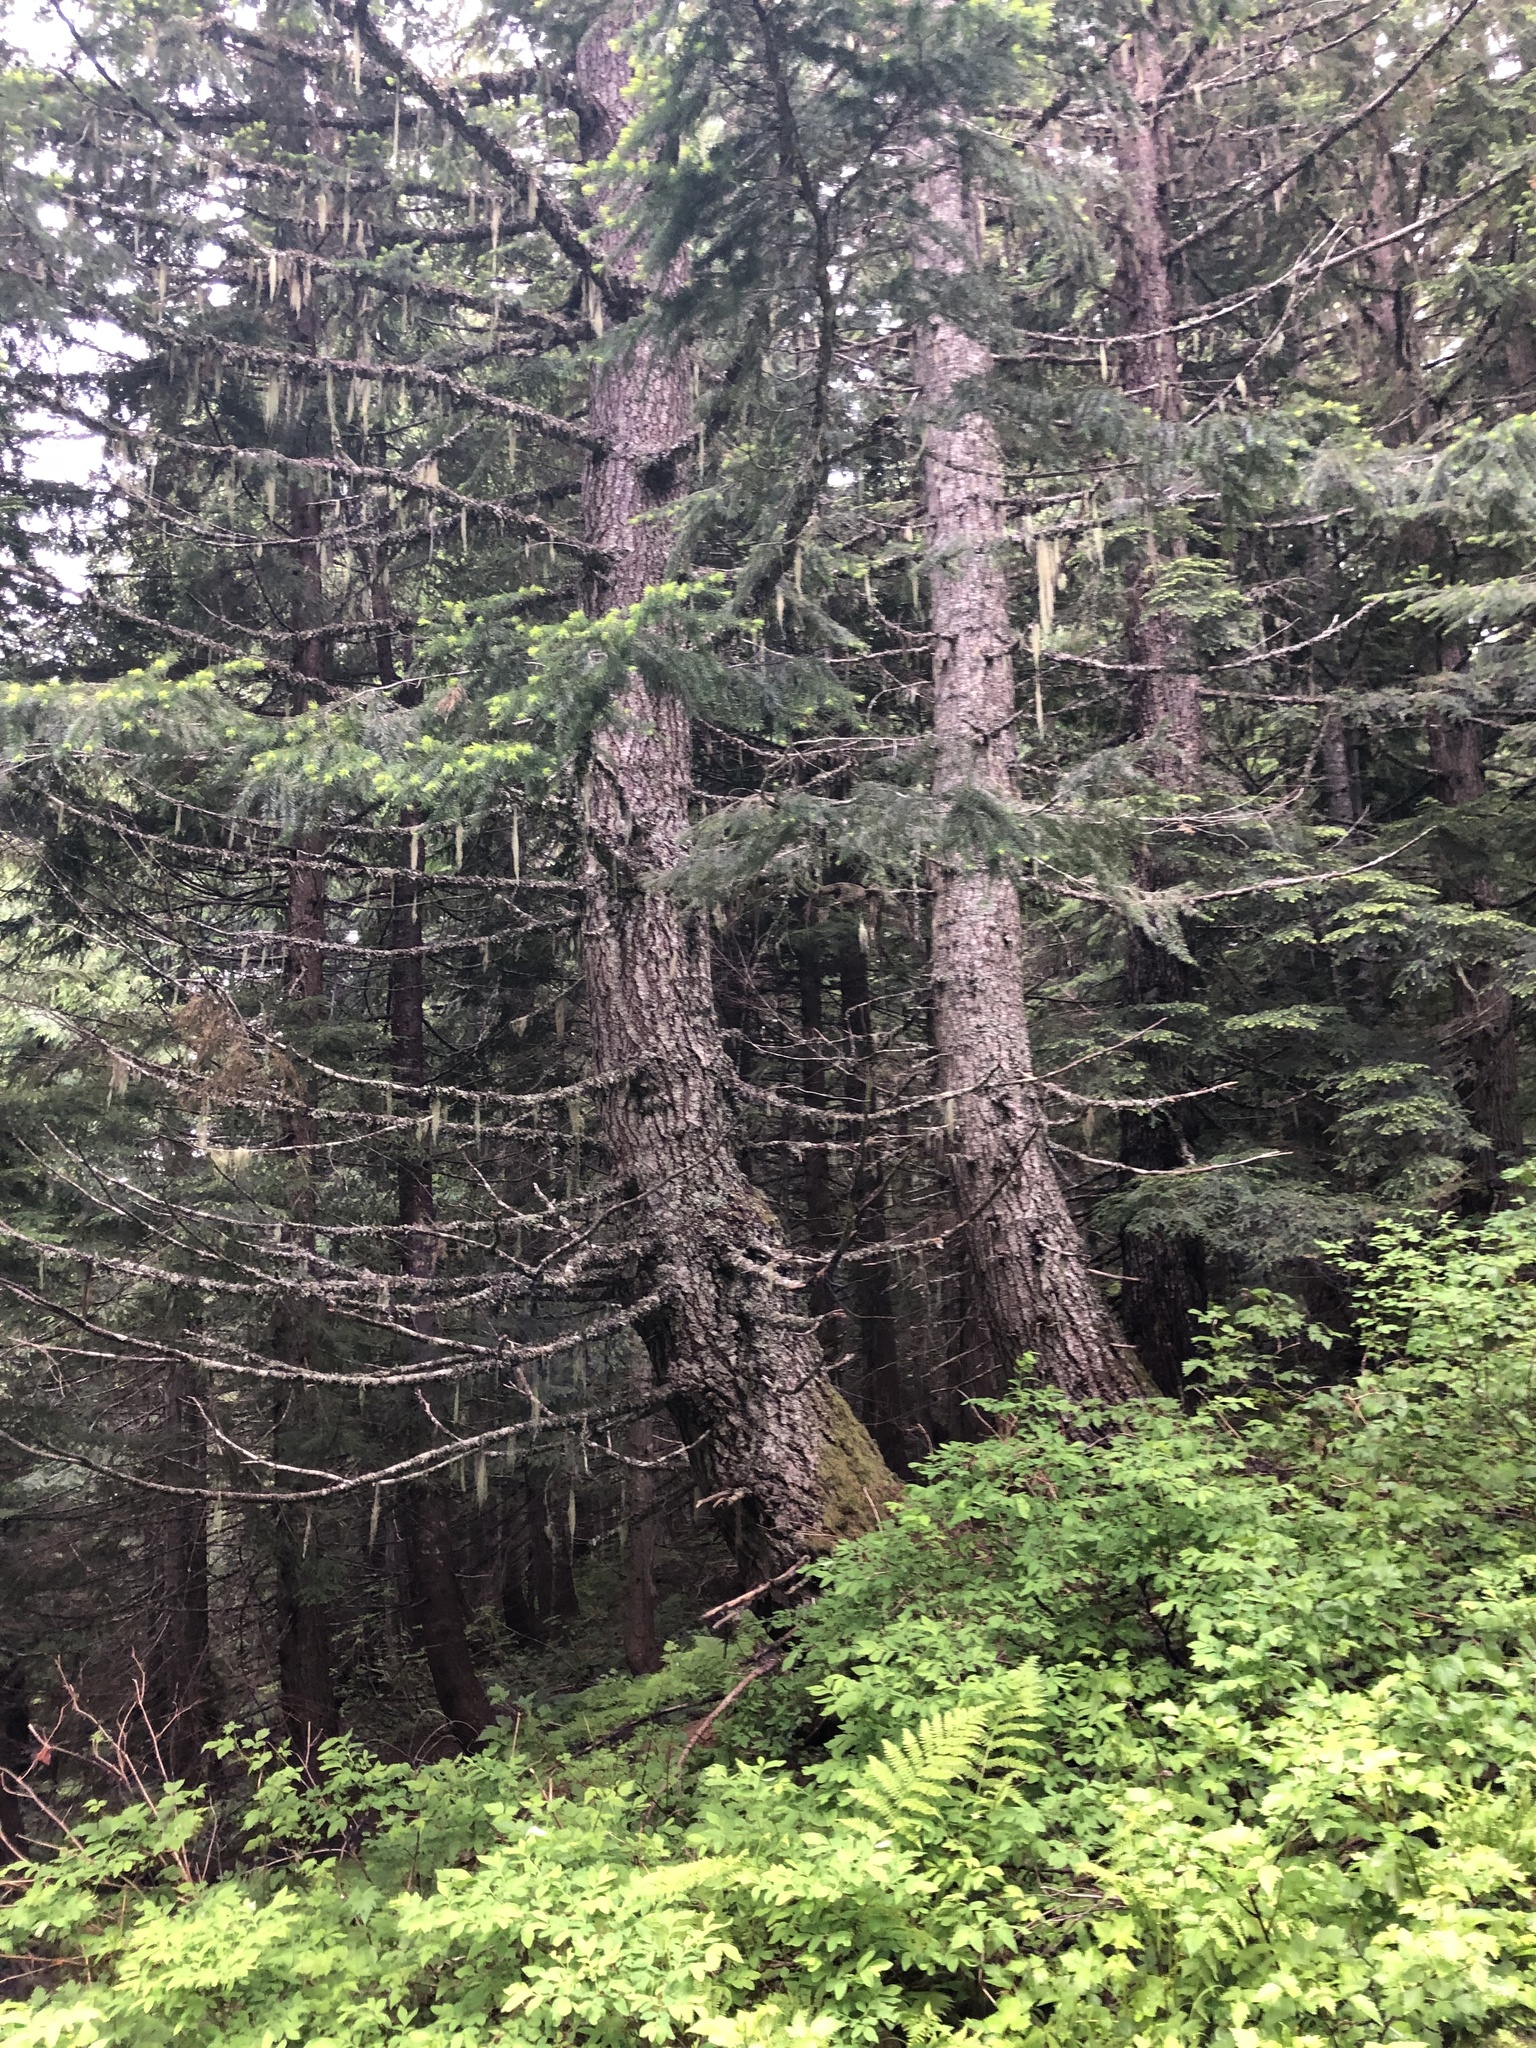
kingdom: Plantae
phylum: Tracheophyta
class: Pinopsida
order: Pinales
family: Pinaceae
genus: Pseudotsuga
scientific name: Pseudotsuga menziesii
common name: Douglas fir
